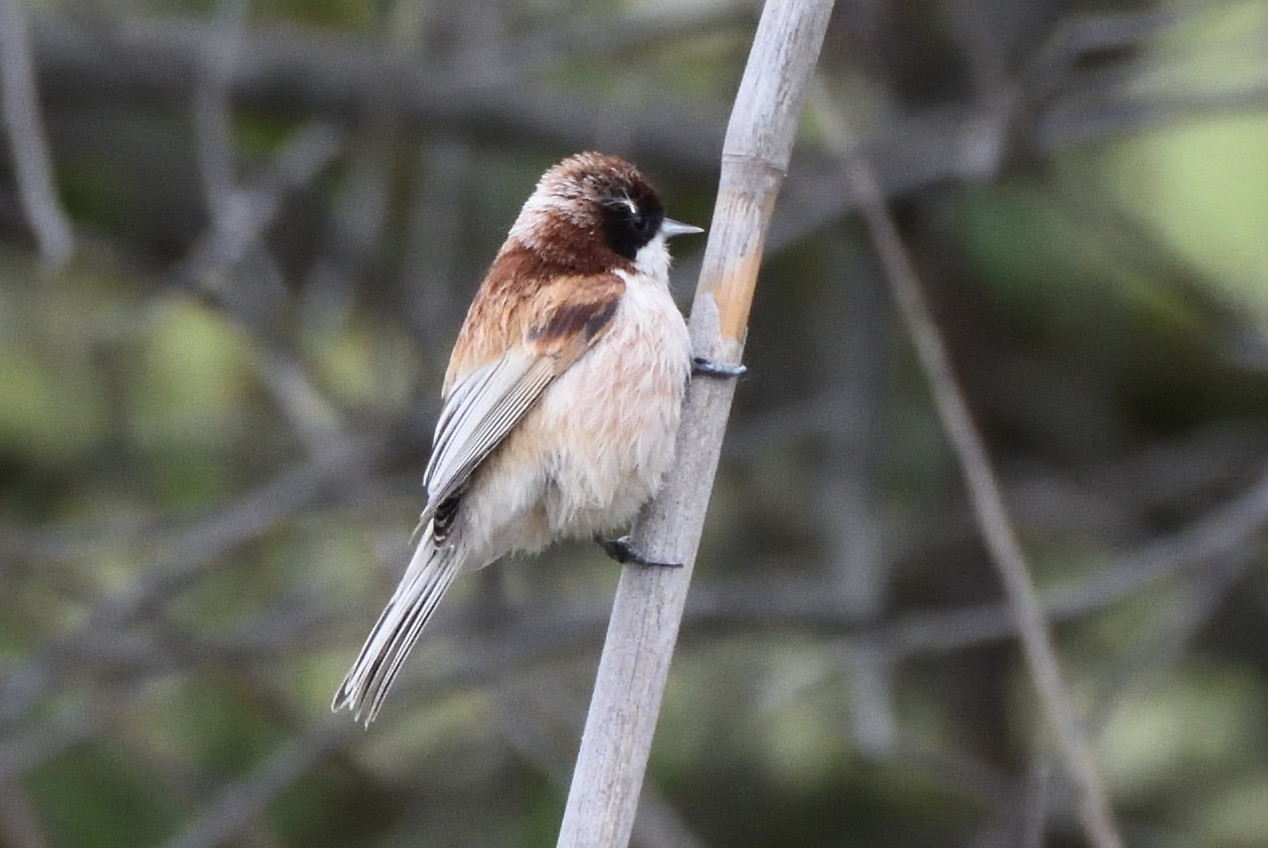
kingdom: Animalia
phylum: Chordata
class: Aves
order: Passeriformes
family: Remizidae
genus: Remiz
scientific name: Remiz pendulinus
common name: Eurasian penduline tit
